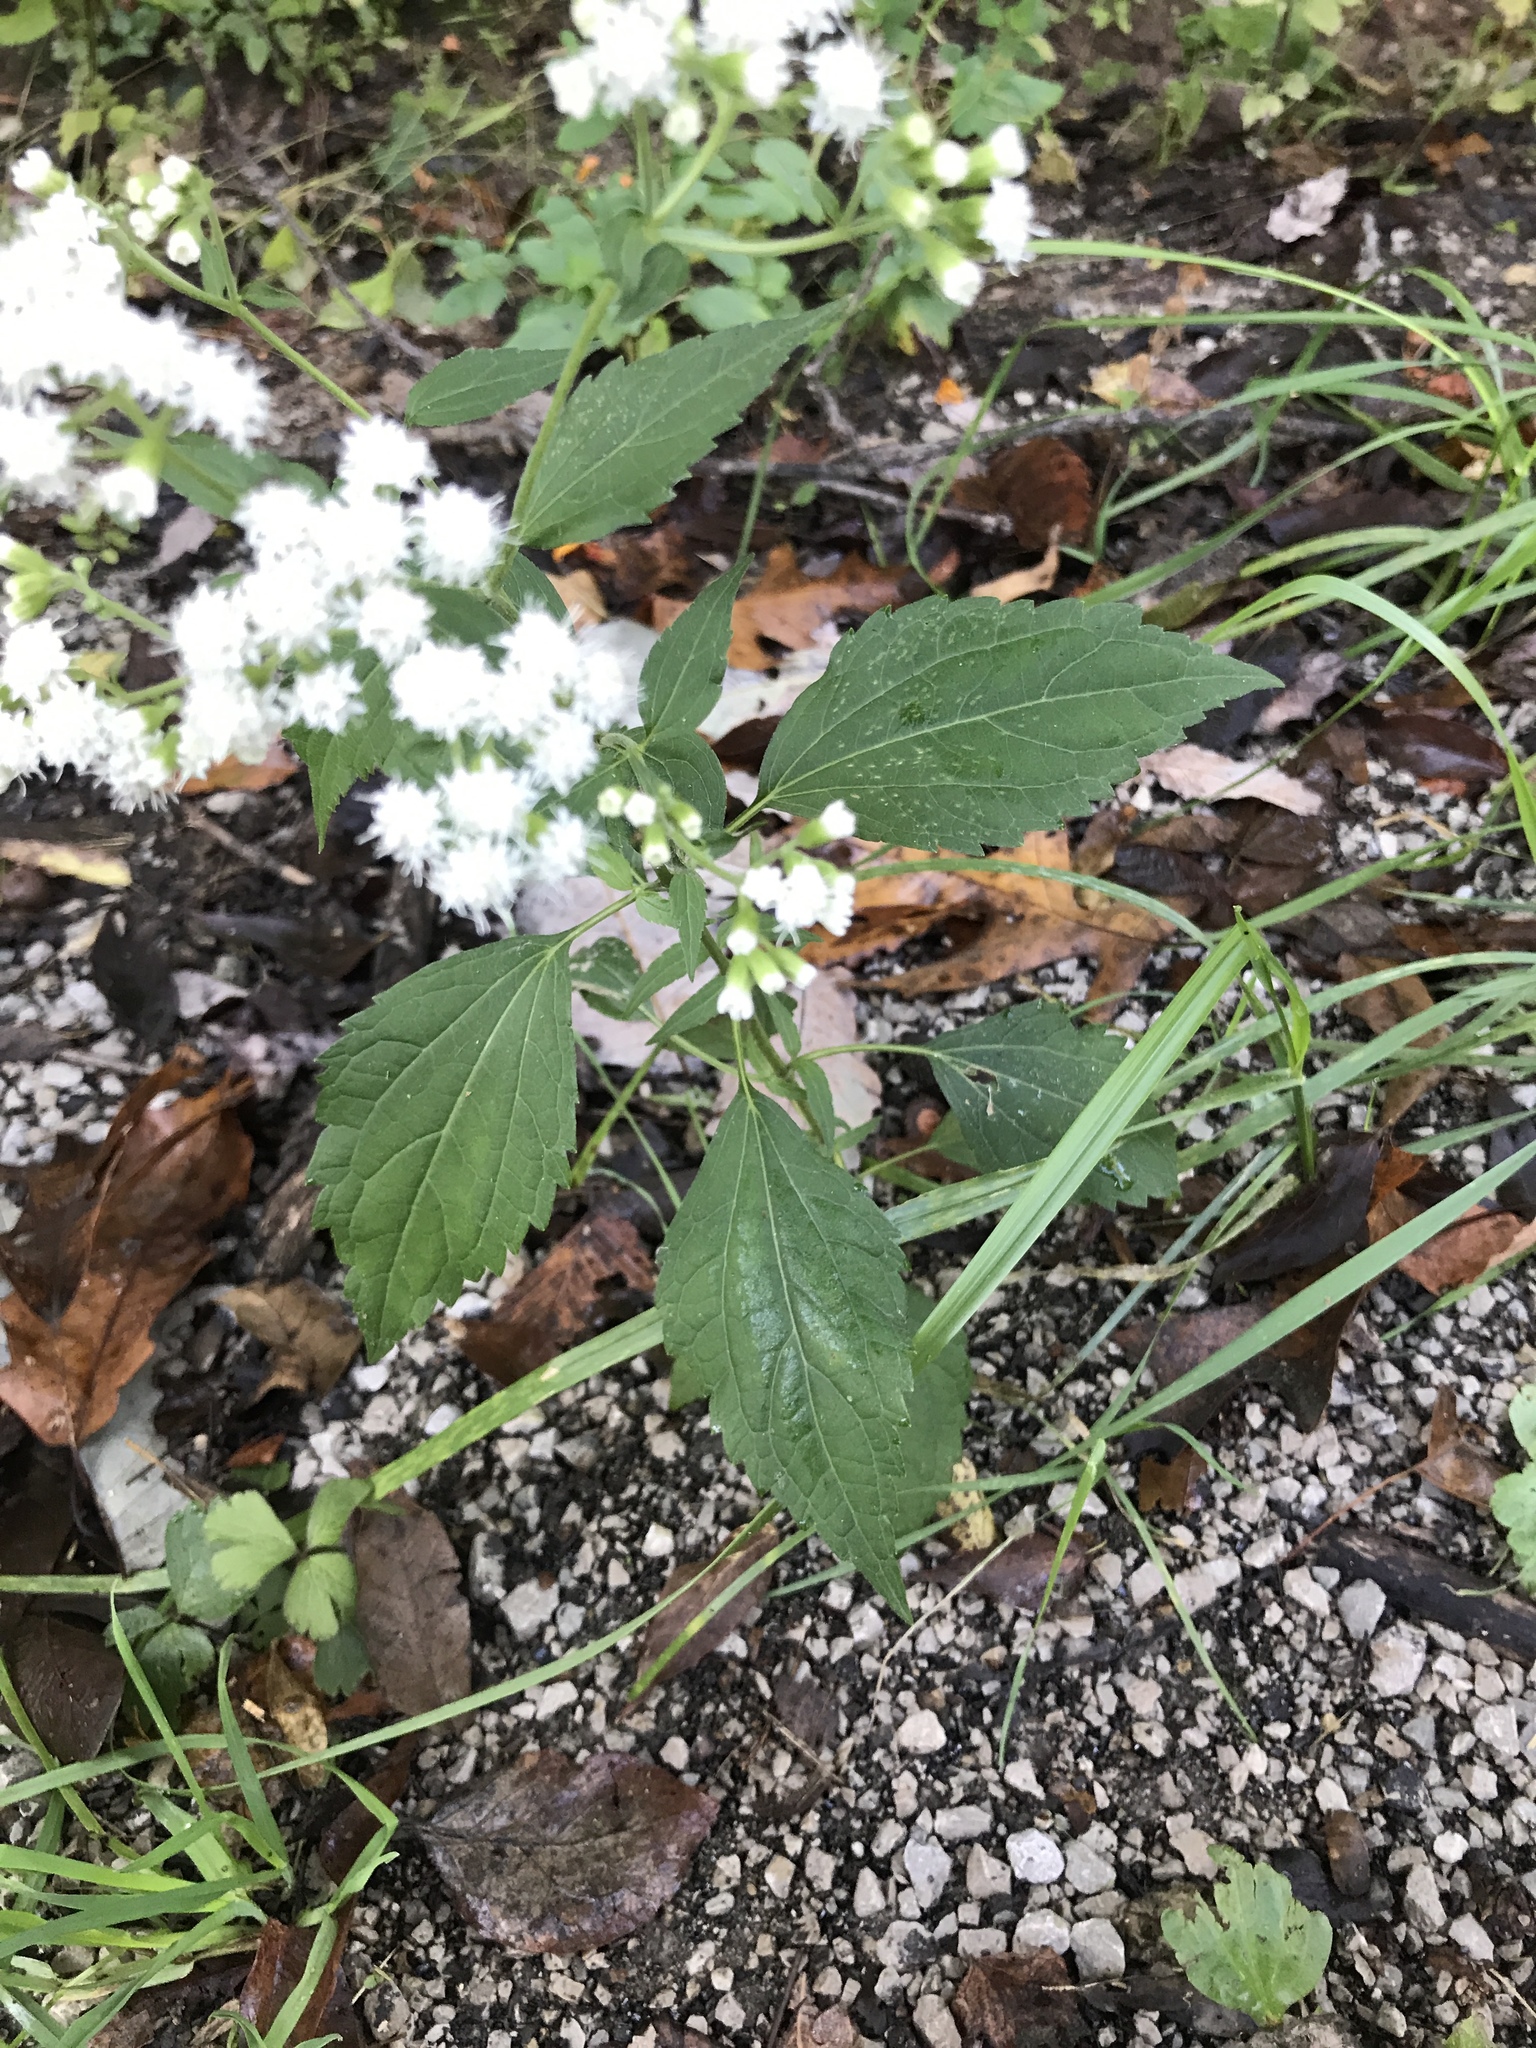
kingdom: Plantae
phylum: Tracheophyta
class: Magnoliopsida
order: Asterales
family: Asteraceae
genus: Ageratina
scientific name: Ageratina altissima
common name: White snakeroot
